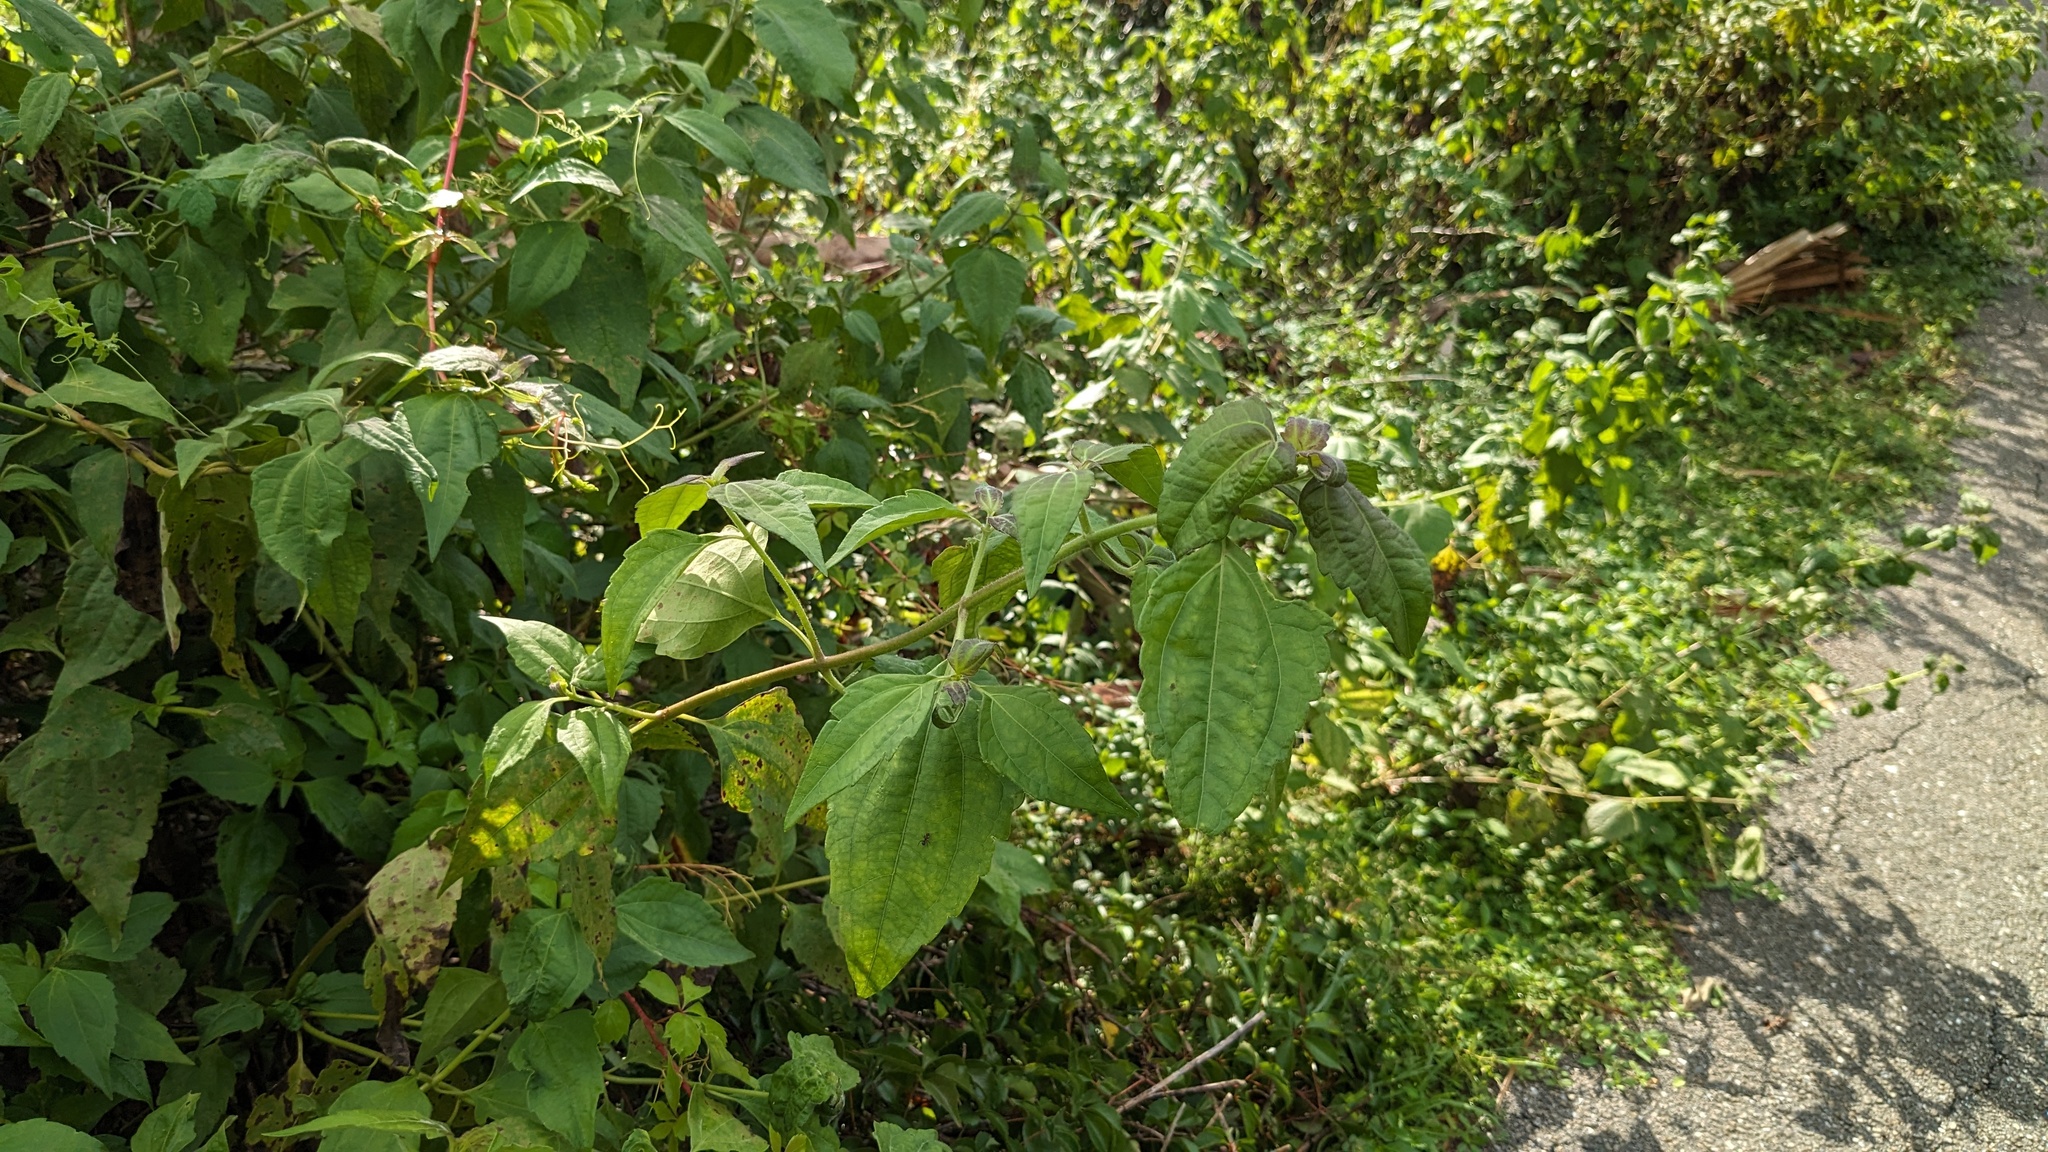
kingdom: Plantae
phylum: Tracheophyta
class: Magnoliopsida
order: Asterales
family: Asteraceae
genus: Chromolaena
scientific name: Chromolaena odorata
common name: Siamweed
